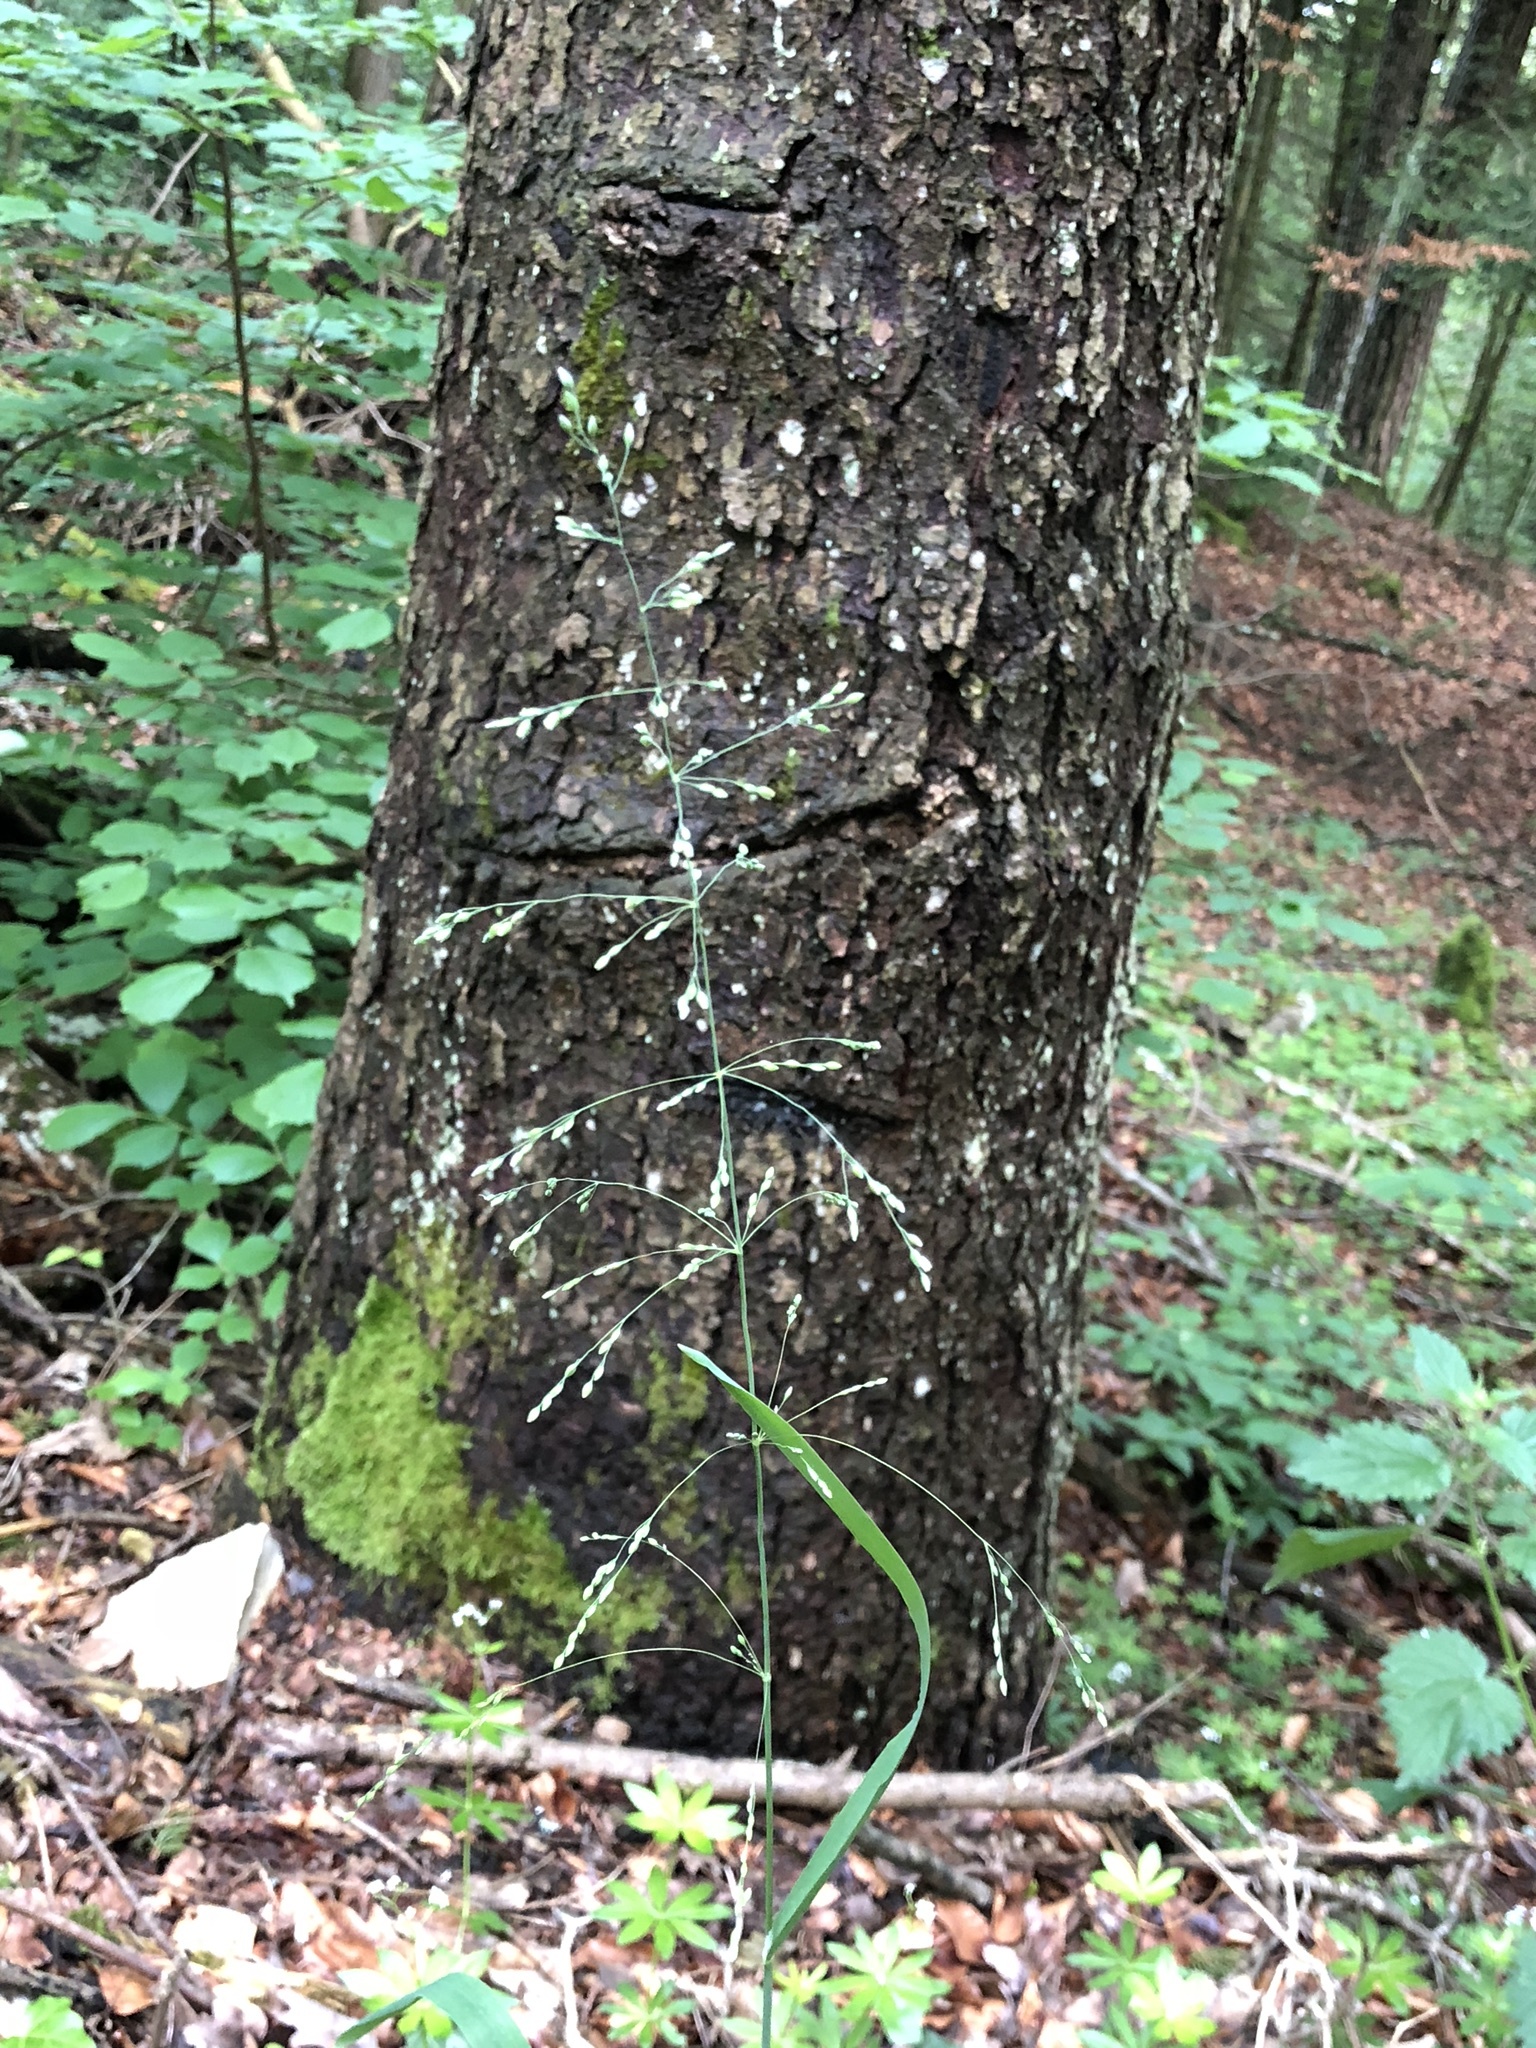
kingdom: Plantae
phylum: Tracheophyta
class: Liliopsida
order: Poales
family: Poaceae
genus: Milium
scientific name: Milium effusum
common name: Wood millet
